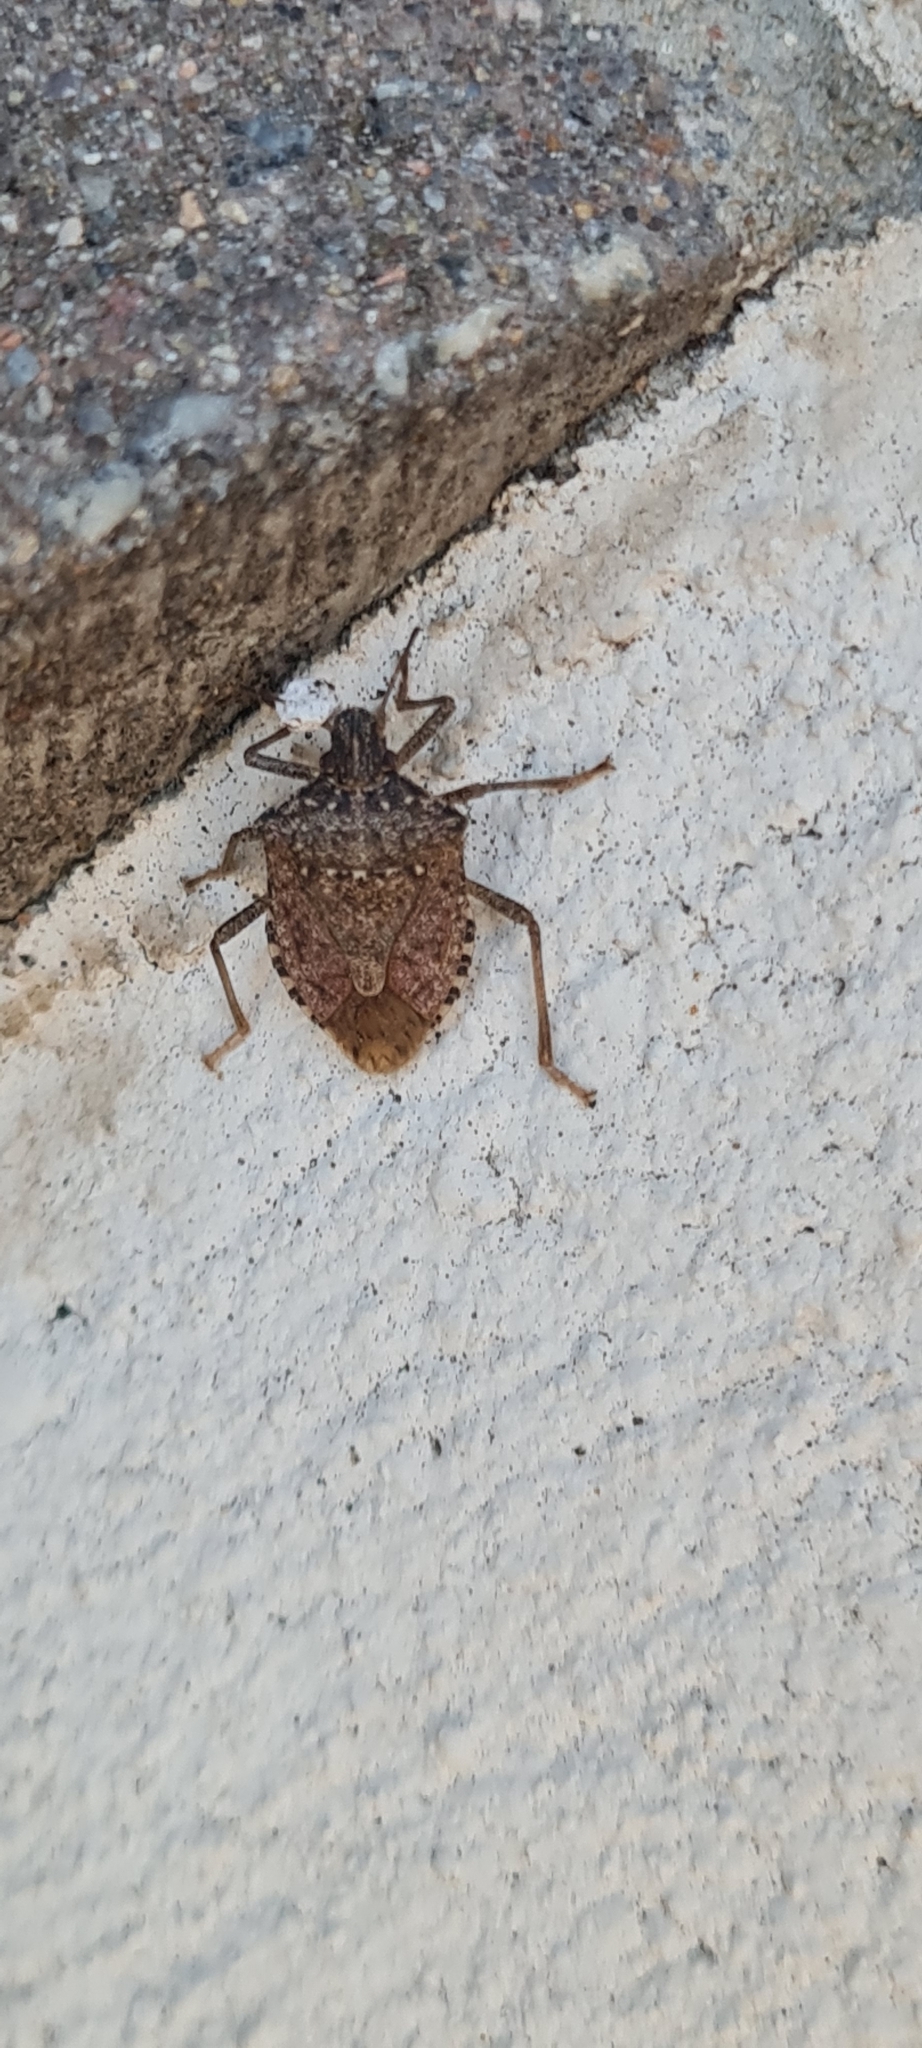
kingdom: Animalia
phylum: Arthropoda
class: Insecta
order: Hemiptera
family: Pentatomidae
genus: Halyomorpha
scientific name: Halyomorpha halys
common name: Brown marmorated stink bug
